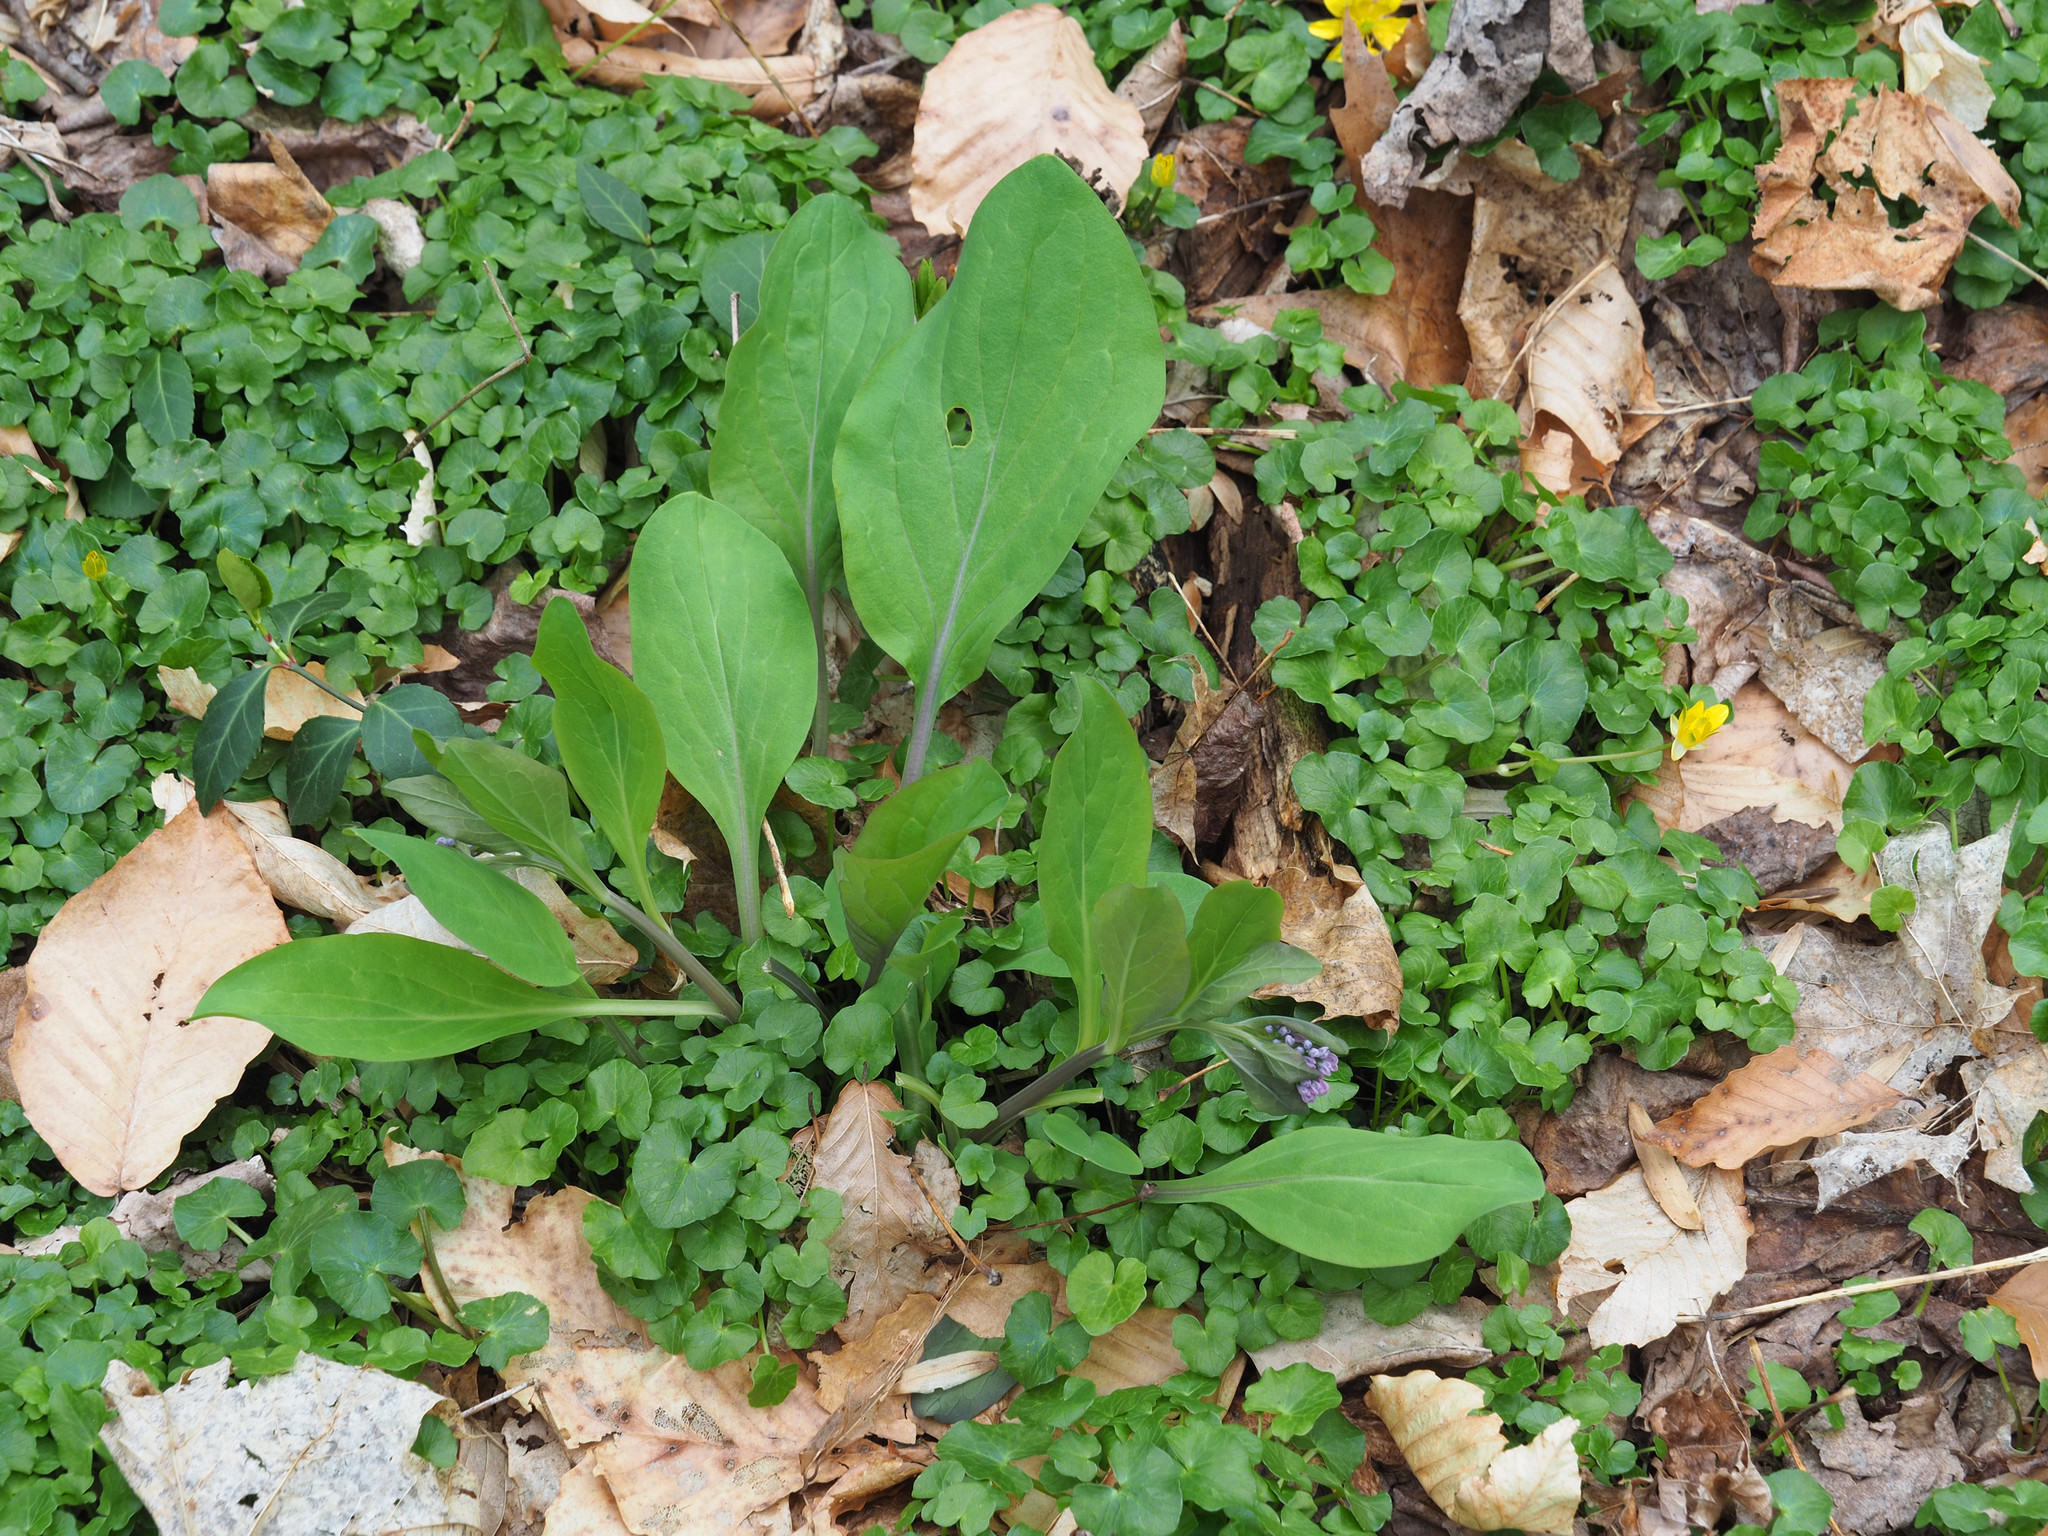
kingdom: Plantae
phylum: Tracheophyta
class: Magnoliopsida
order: Boraginales
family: Boraginaceae
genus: Mertensia
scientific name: Mertensia virginica
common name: Virginia bluebells
